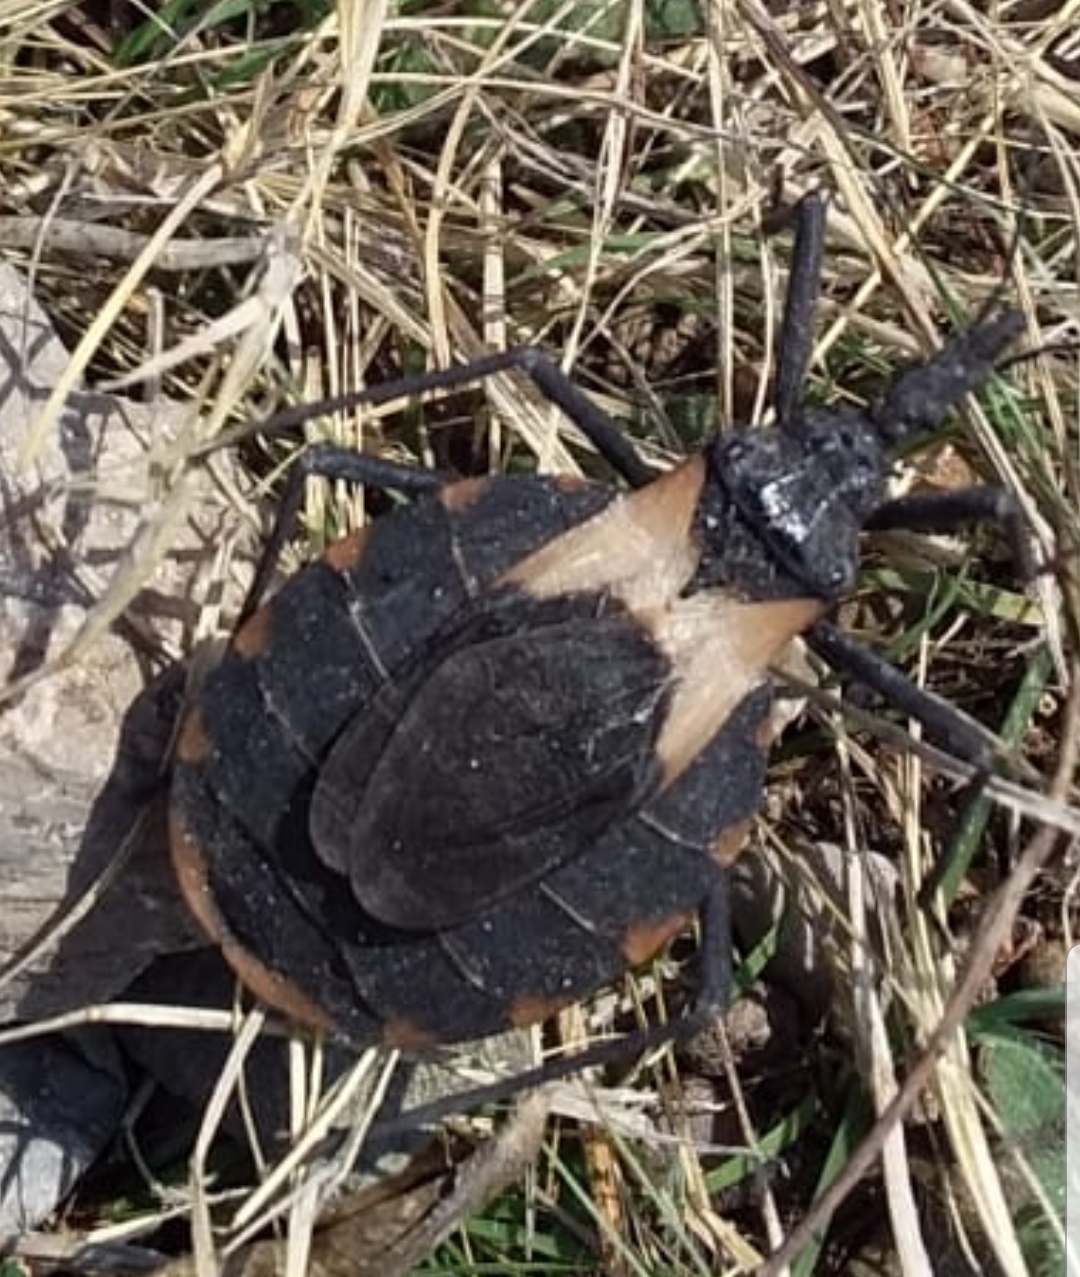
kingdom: Animalia
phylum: Arthropoda
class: Insecta
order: Hemiptera
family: Reduviidae
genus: Meccus
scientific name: Meccus pallidipennis
